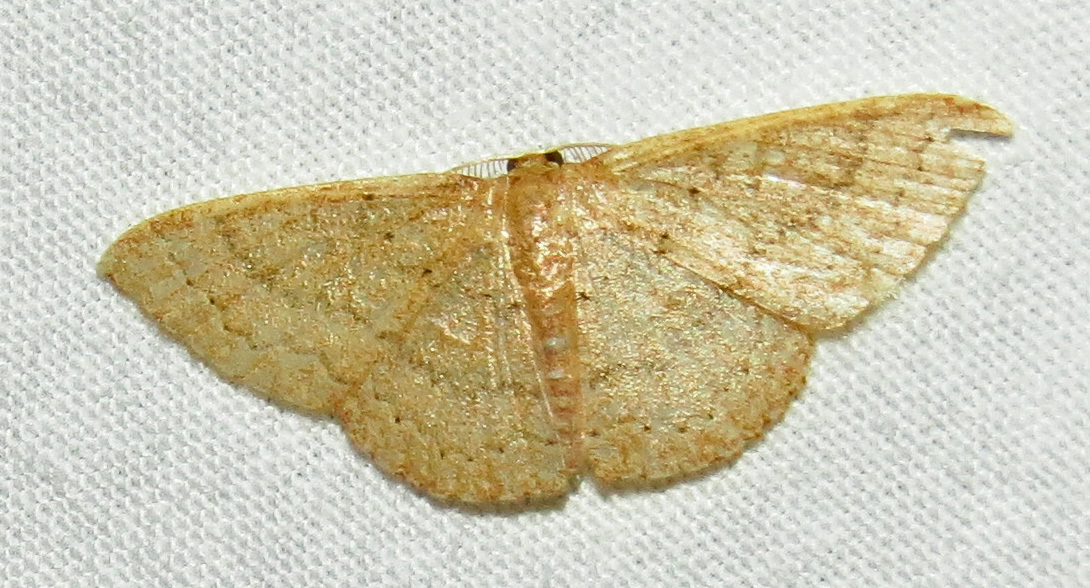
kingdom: Animalia
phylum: Arthropoda
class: Insecta
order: Lepidoptera
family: Geometridae
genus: Pleuroprucha
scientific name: Pleuroprucha insulsaria
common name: Common tan wave
